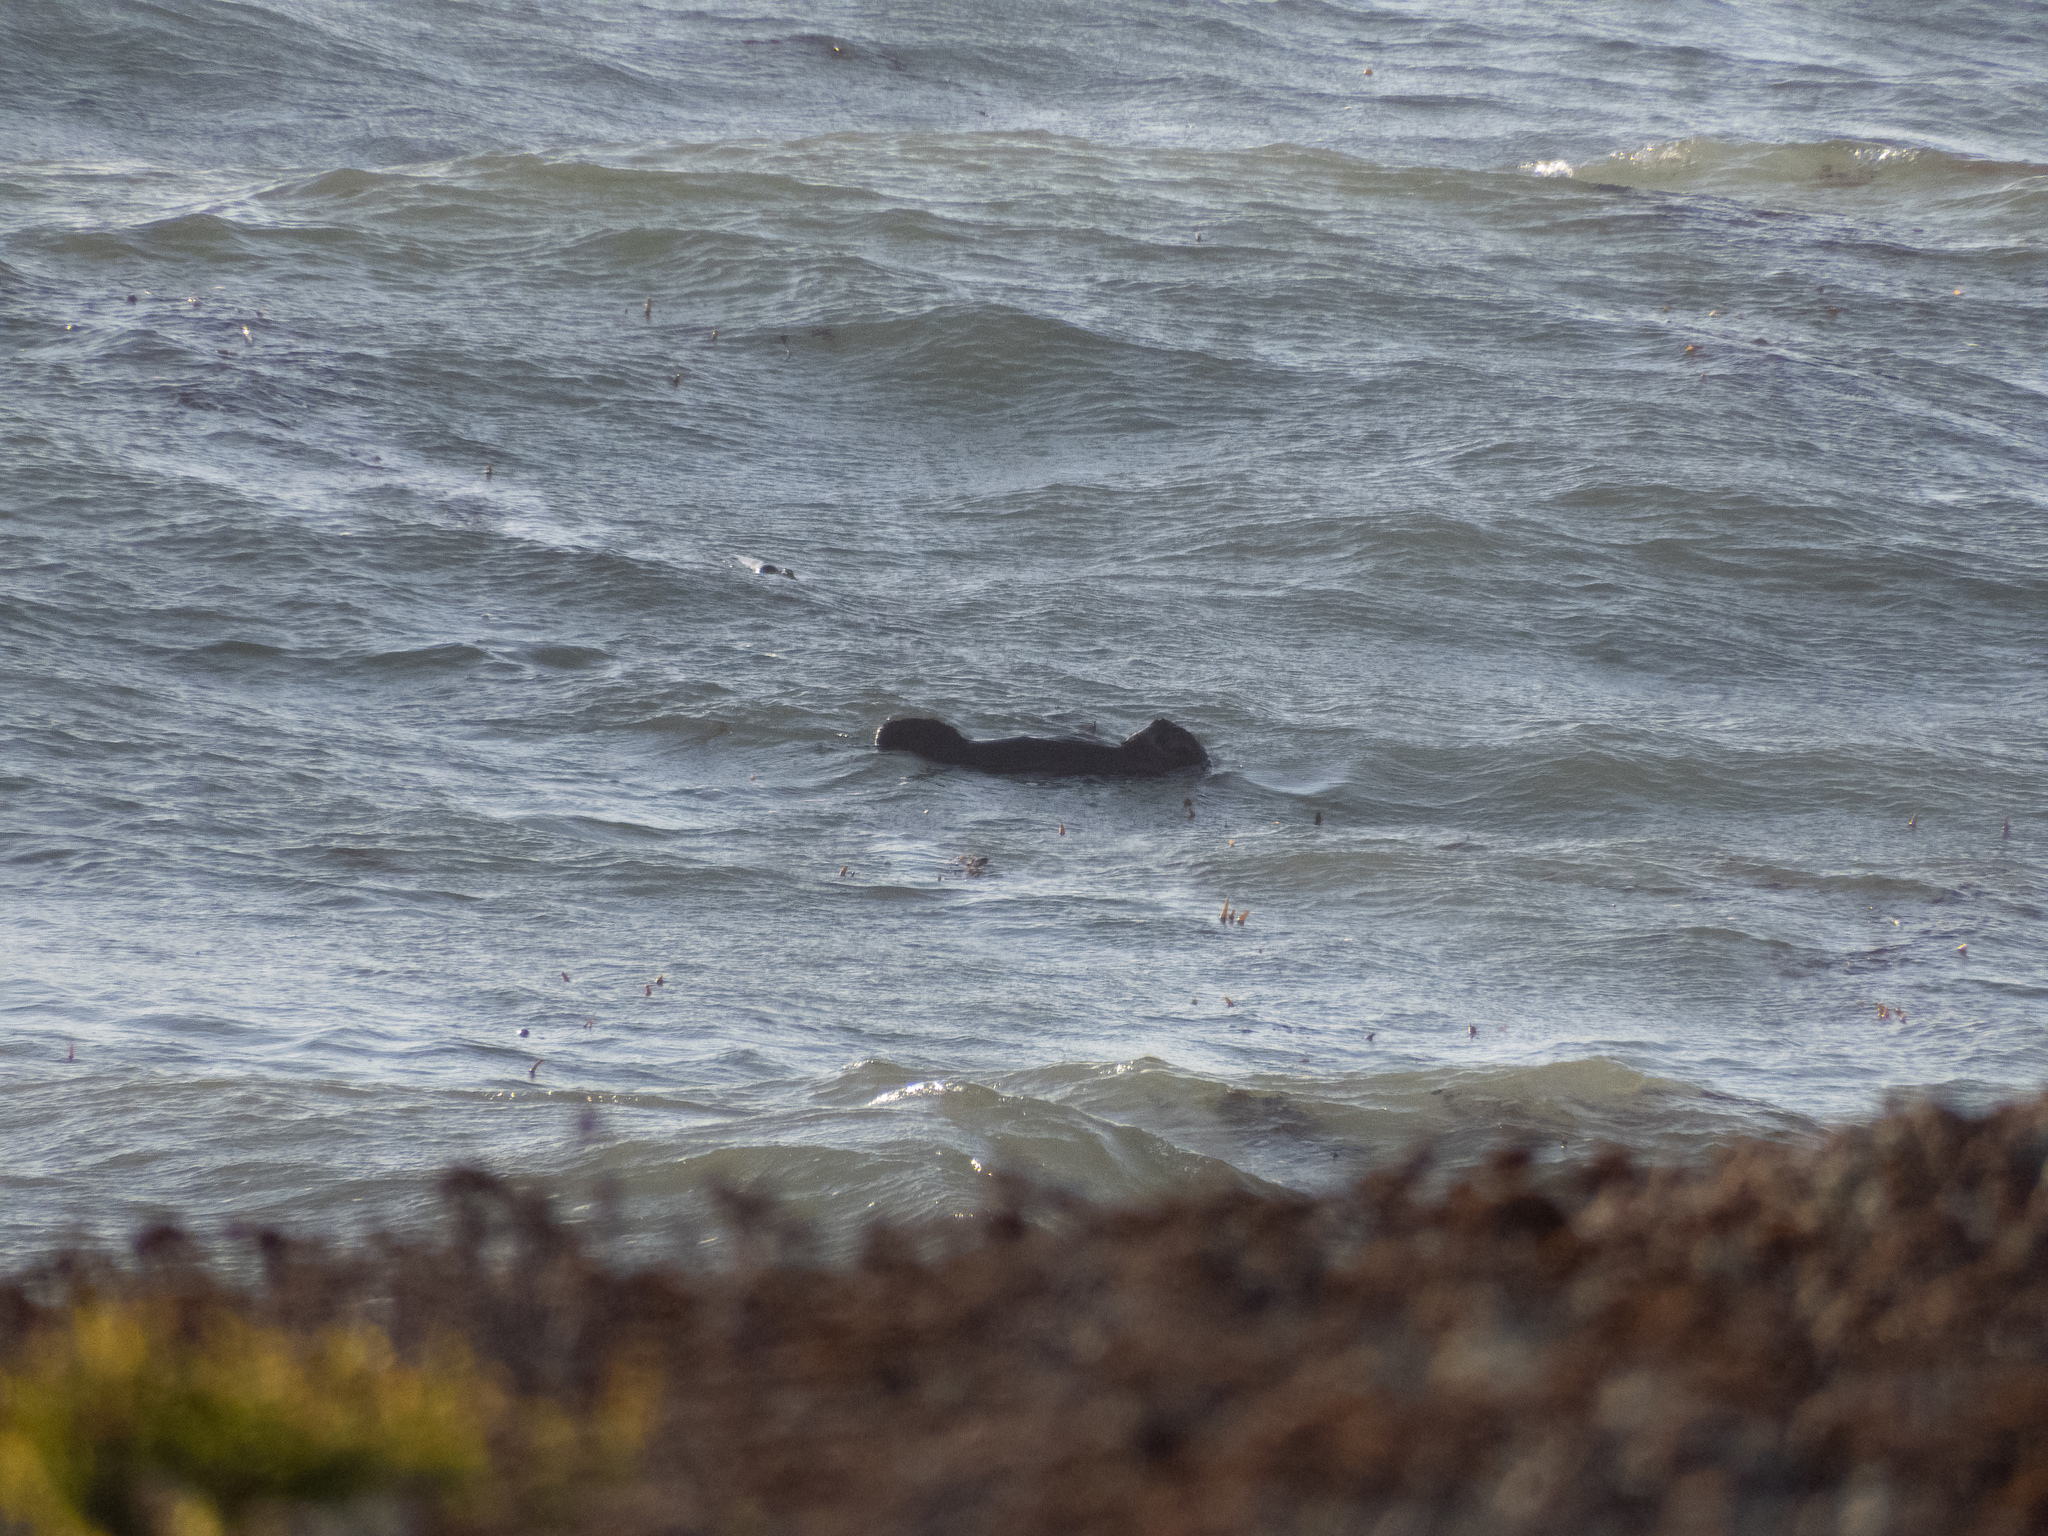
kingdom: Animalia
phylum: Chordata
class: Mammalia
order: Carnivora
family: Mustelidae
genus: Enhydra
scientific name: Enhydra lutris
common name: Sea otter
